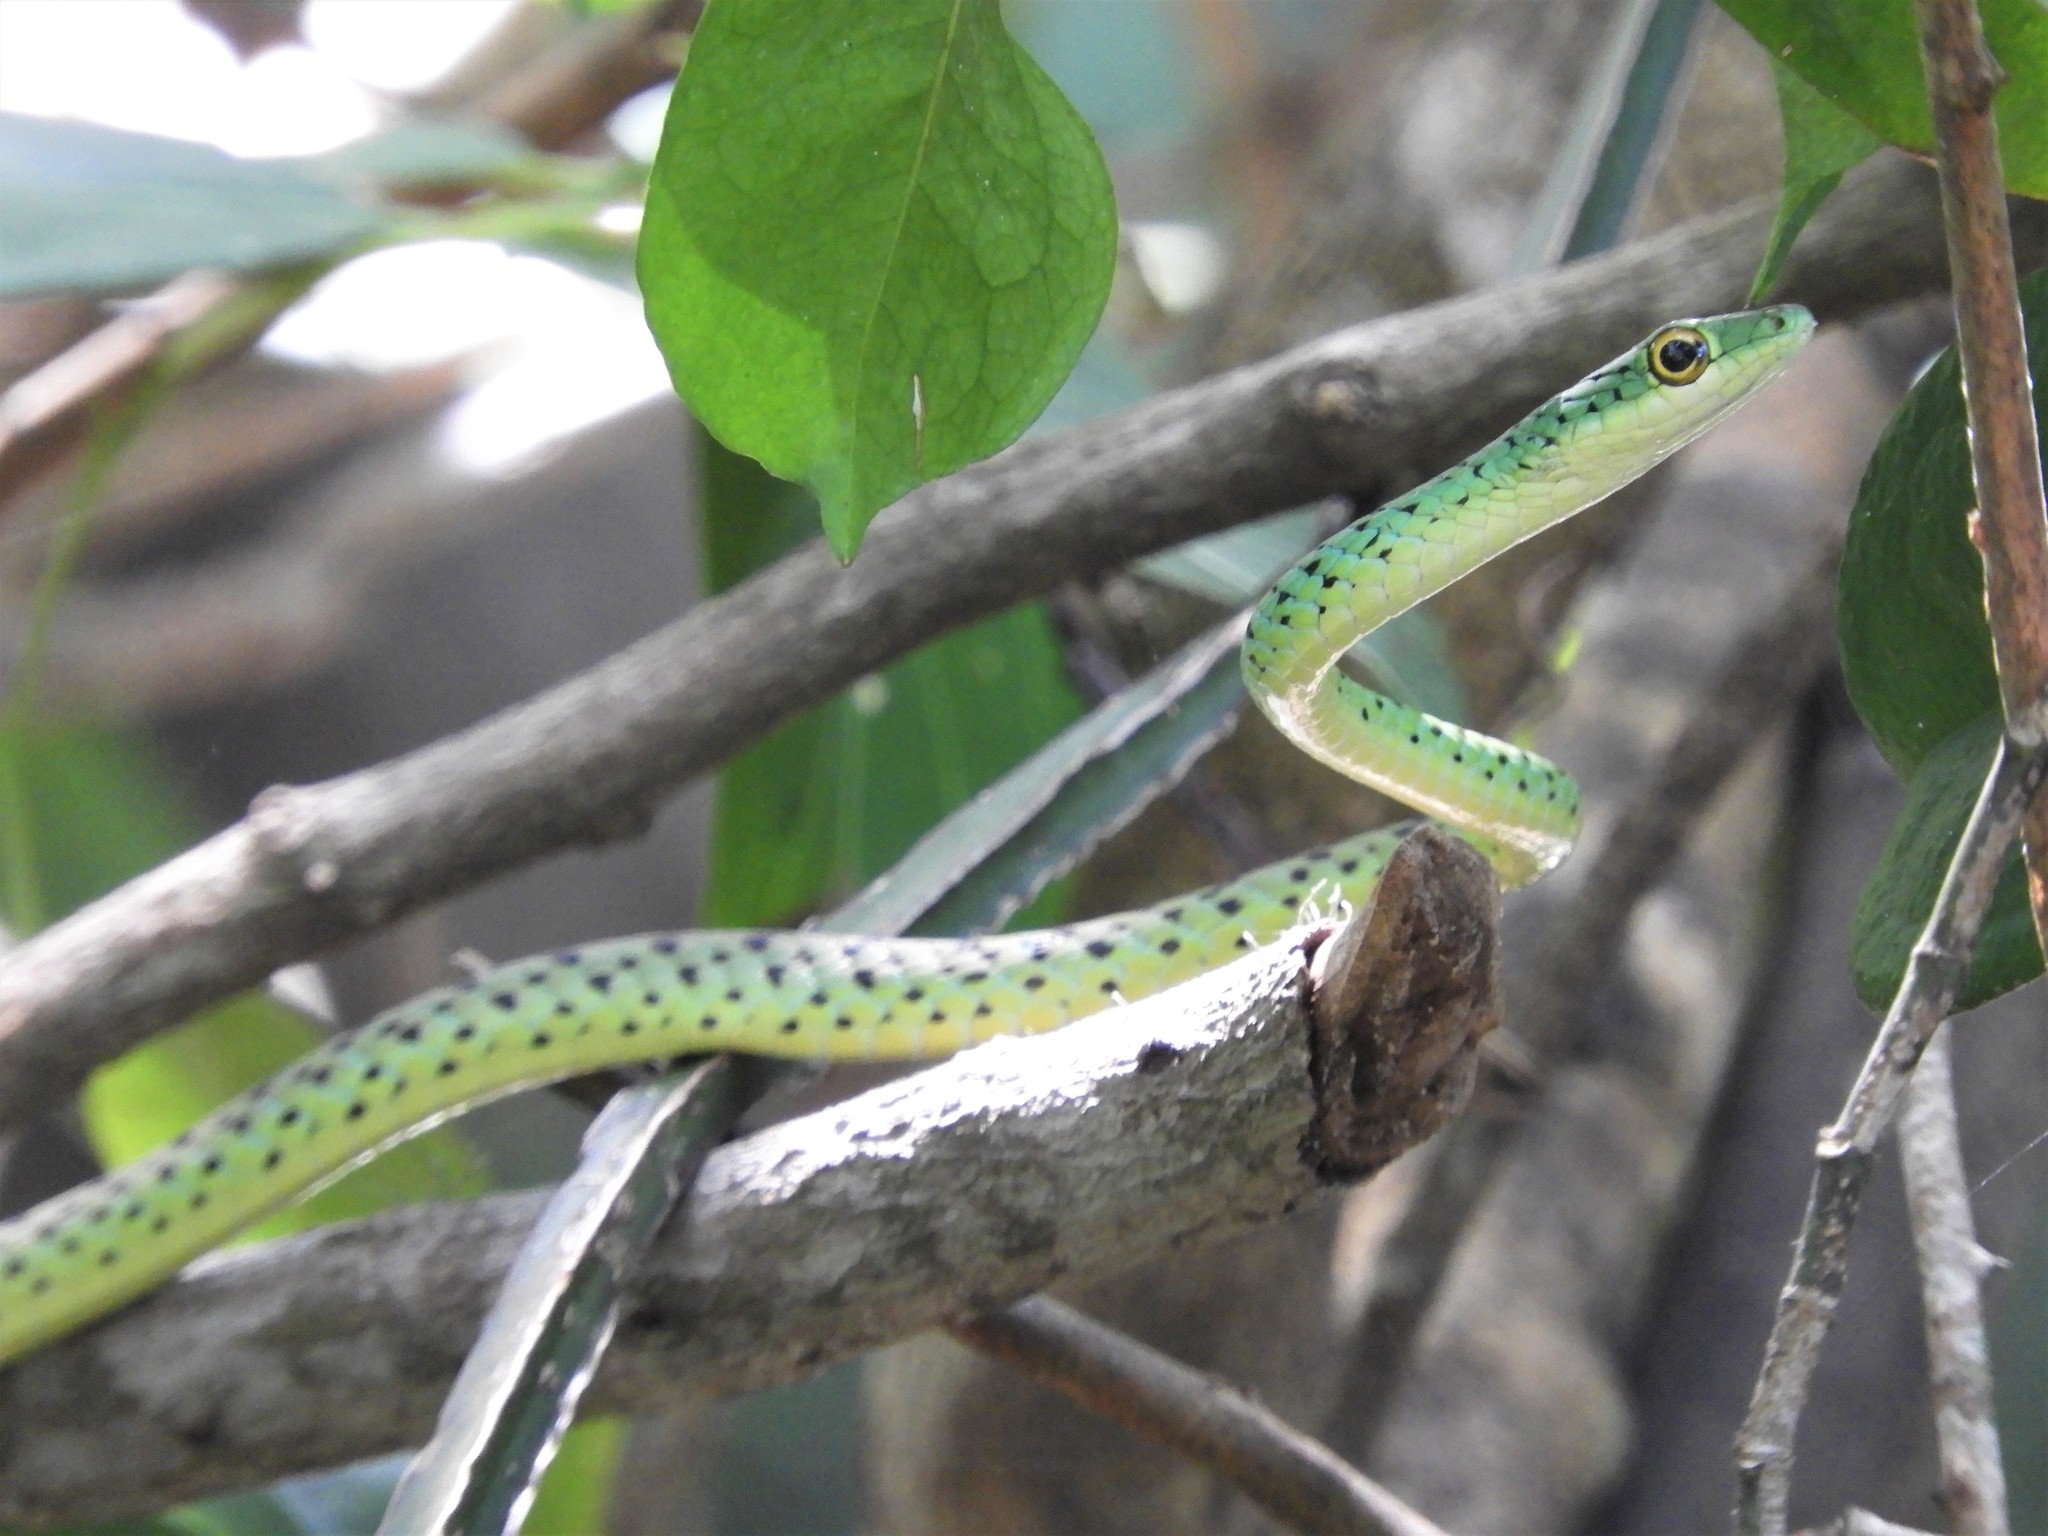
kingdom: Animalia
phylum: Chordata
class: Squamata
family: Colubridae
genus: Philothamnus
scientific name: Philothamnus semivariegatus
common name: Spotted bush snake
